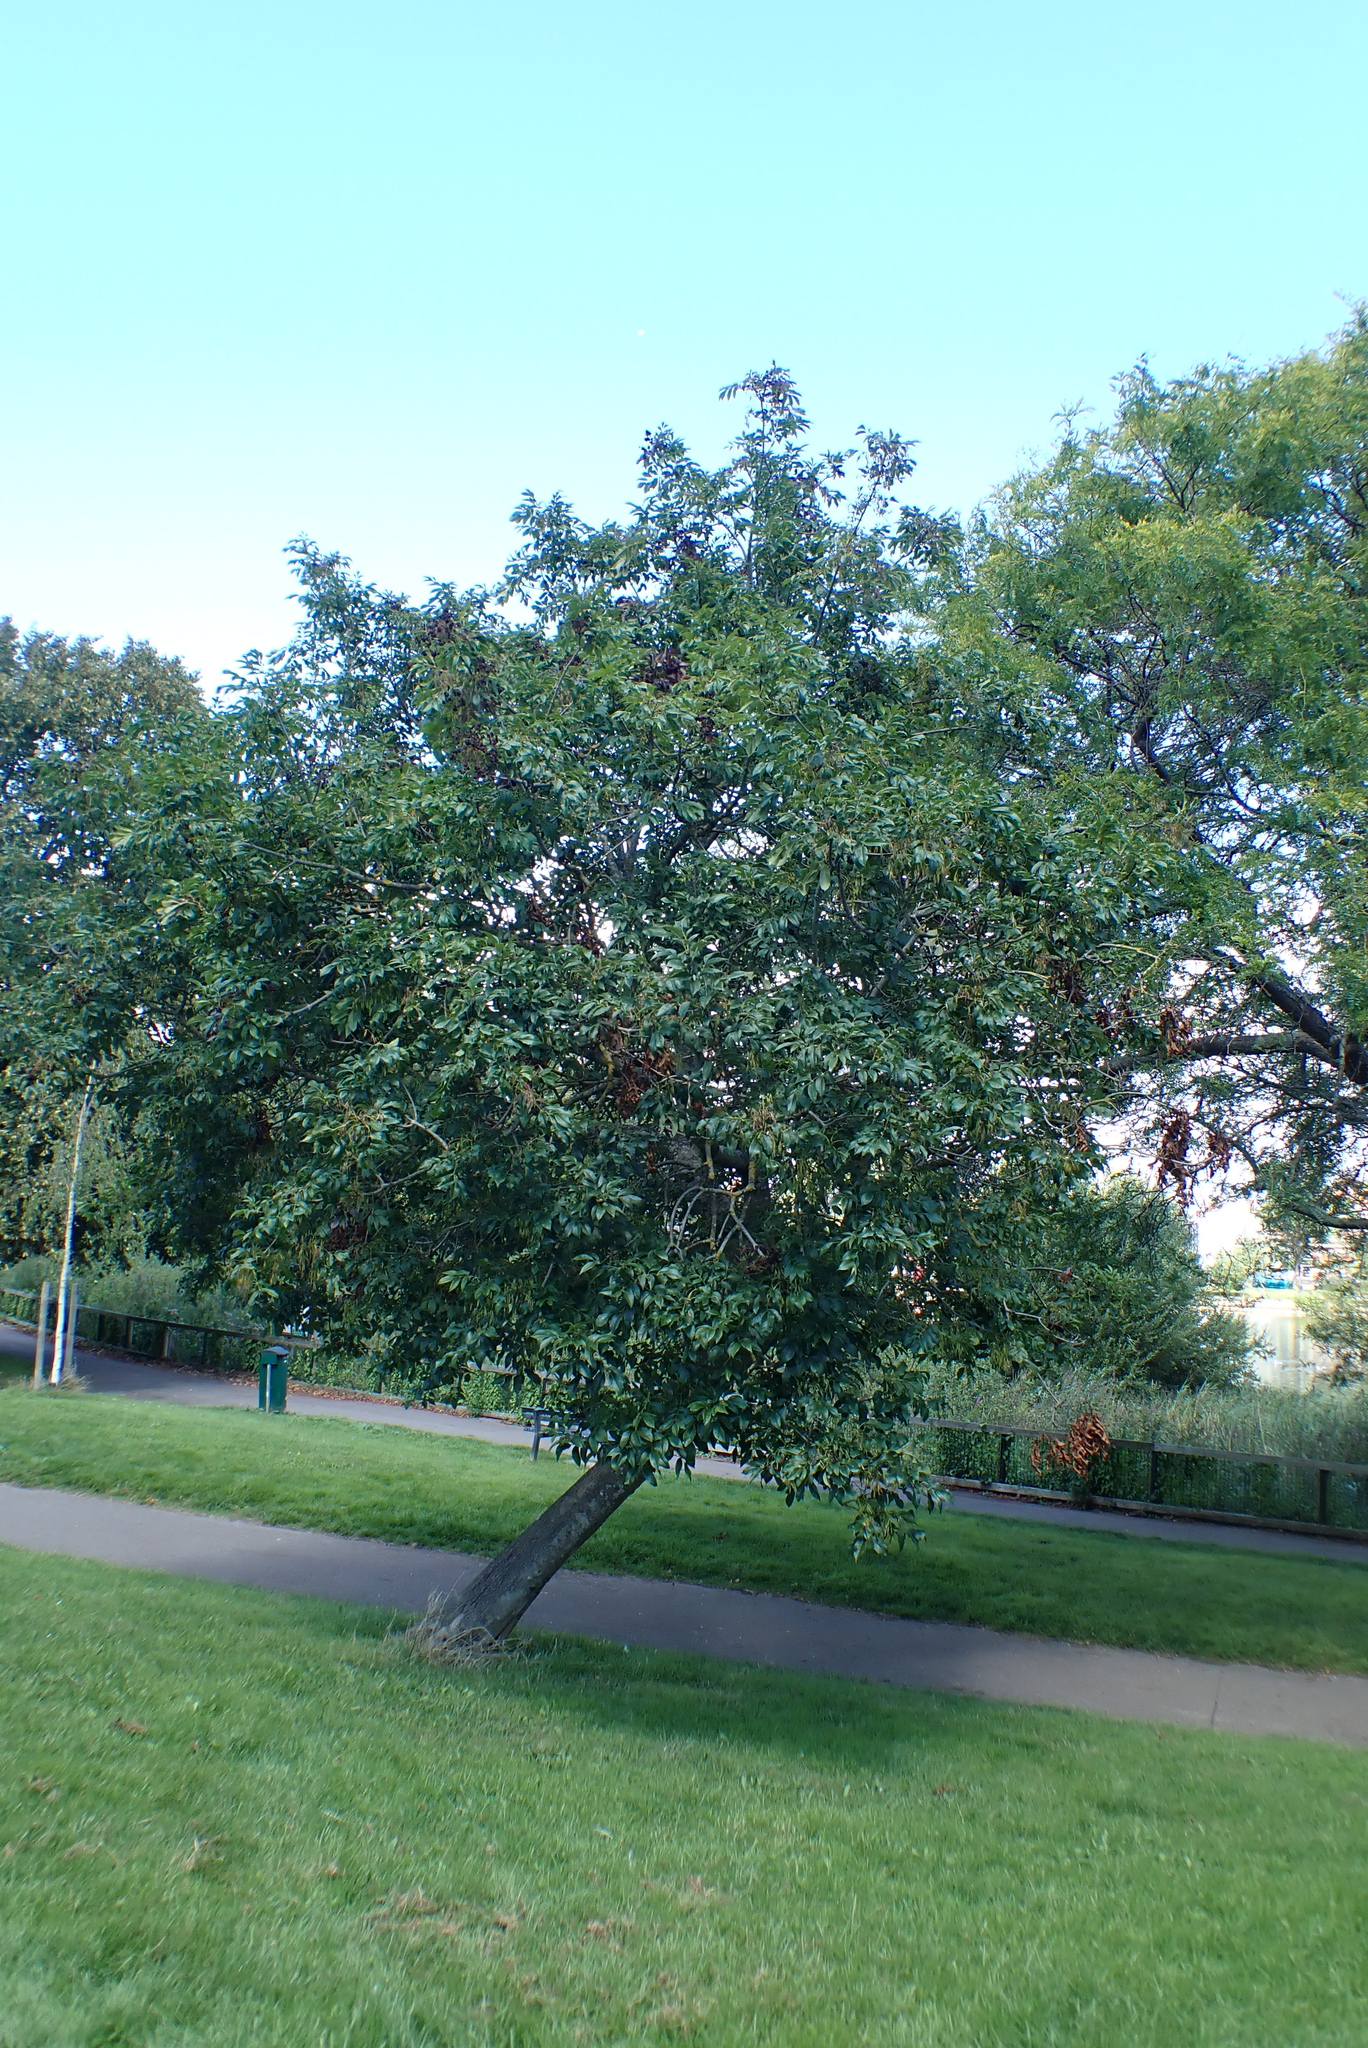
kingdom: Plantae
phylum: Tracheophyta
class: Magnoliopsida
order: Lamiales
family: Oleaceae
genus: Fraxinus
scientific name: Fraxinus ornus
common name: Manna ash
